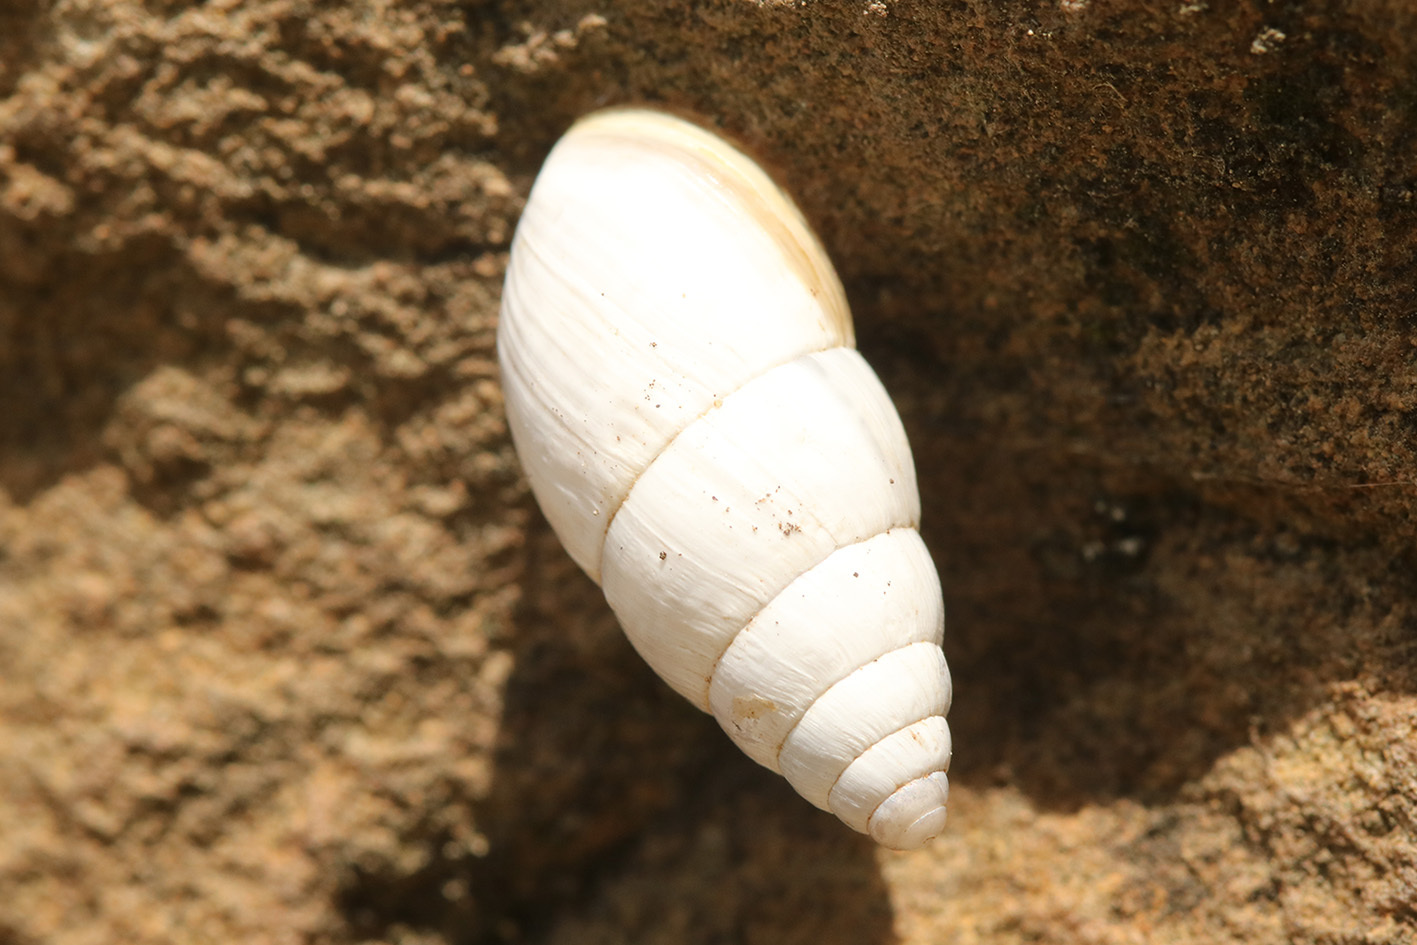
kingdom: Animalia
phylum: Mollusca
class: Gastropoda
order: Stylommatophora
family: Enidae
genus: Zebrina
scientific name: Zebrina detrita
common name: Large bulin
